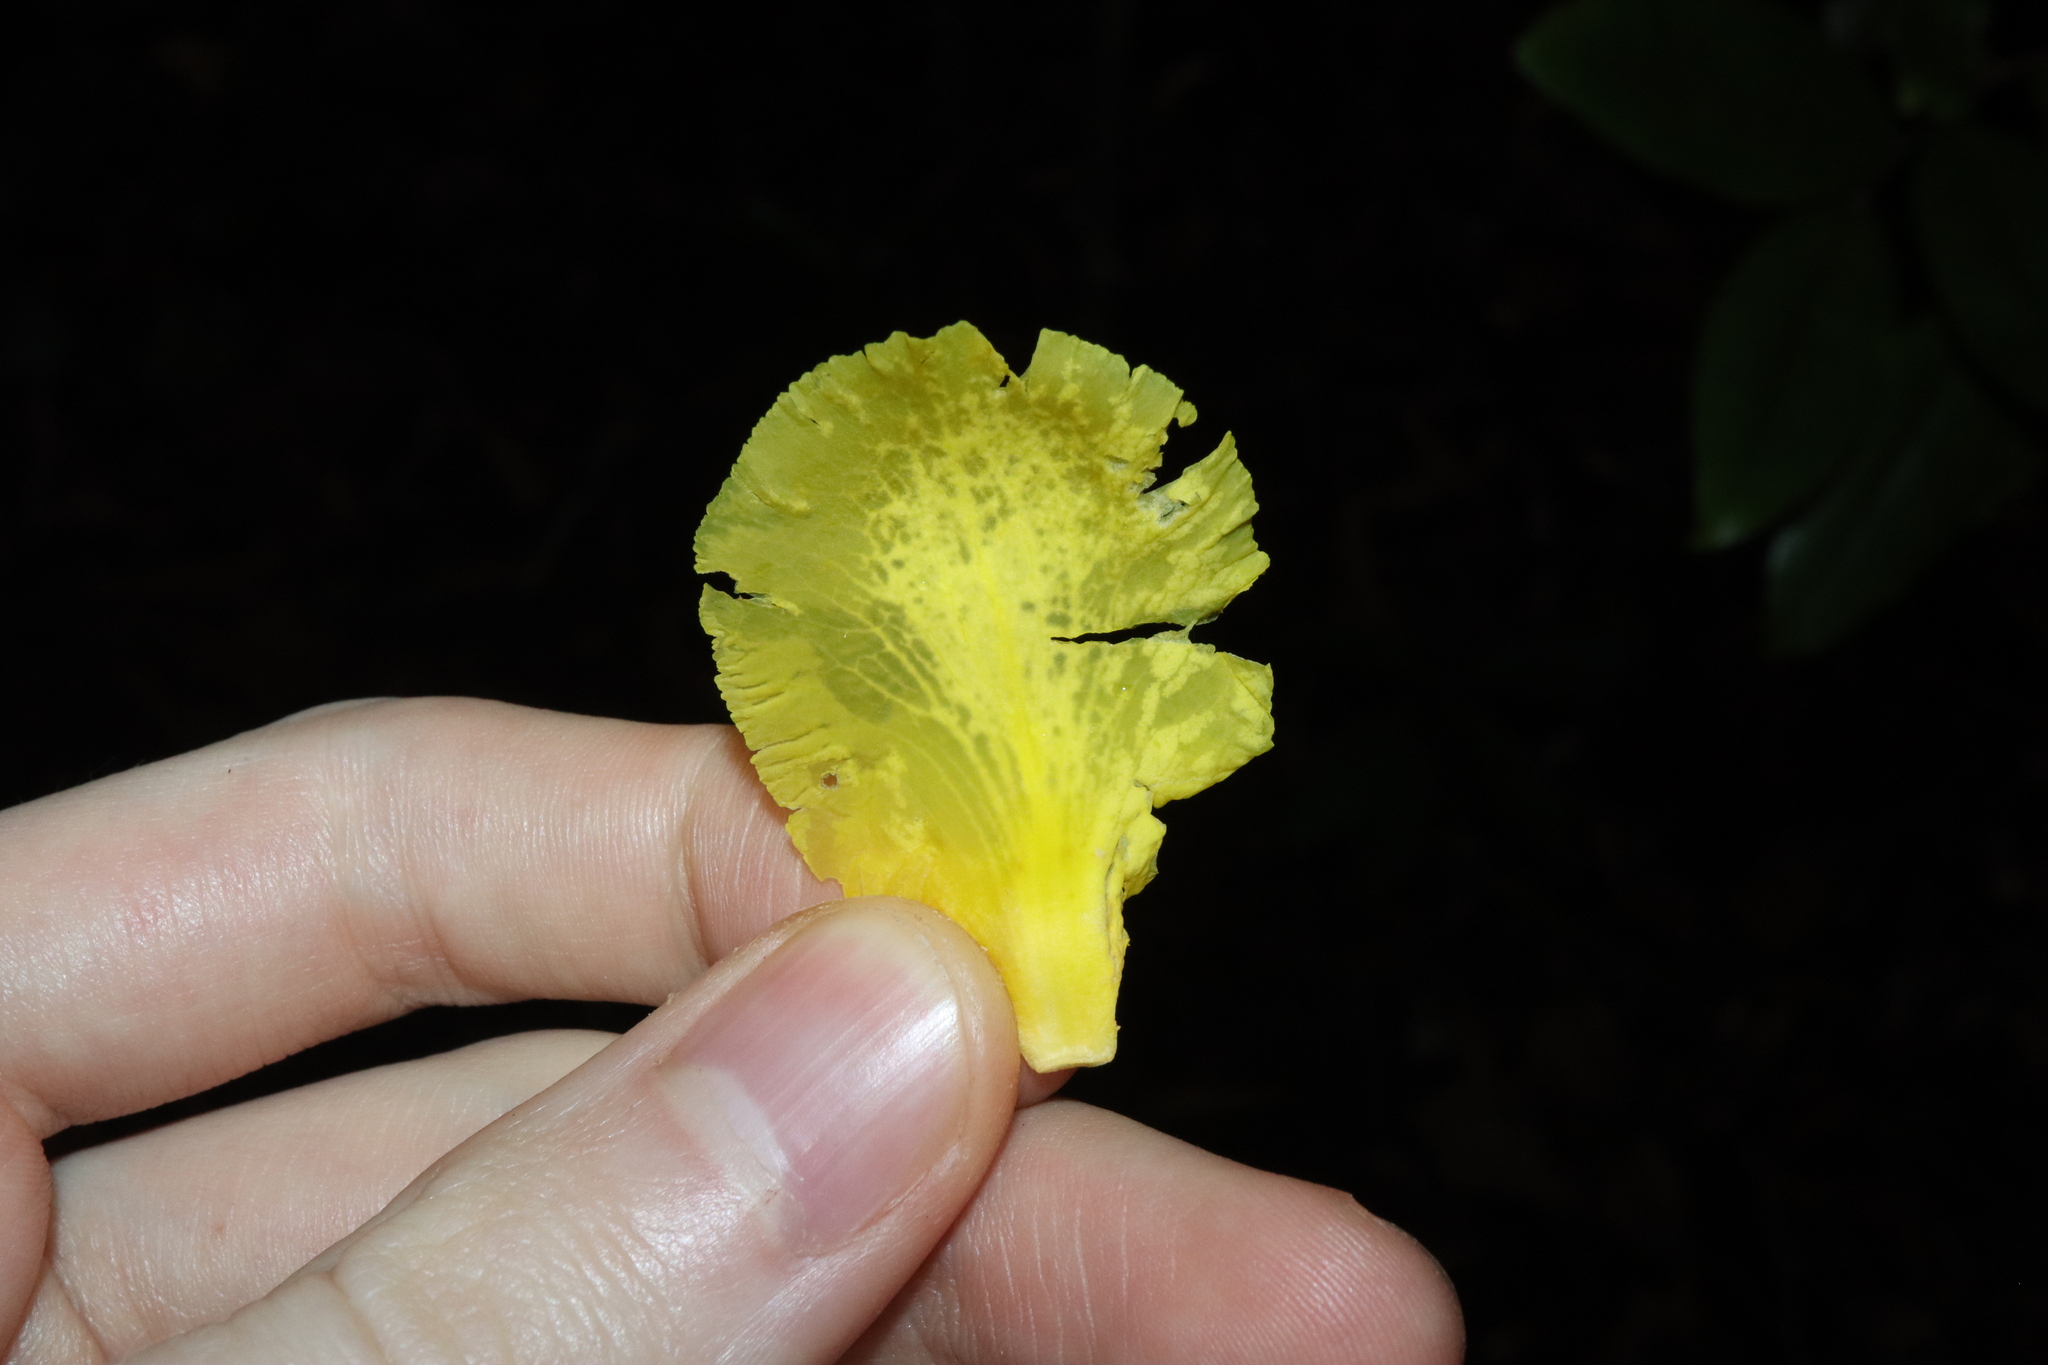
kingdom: Plantae
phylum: Tracheophyta
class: Magnoliopsida
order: Dilleniales
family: Dilleniaceae
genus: Dillenia
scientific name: Dillenia alata
